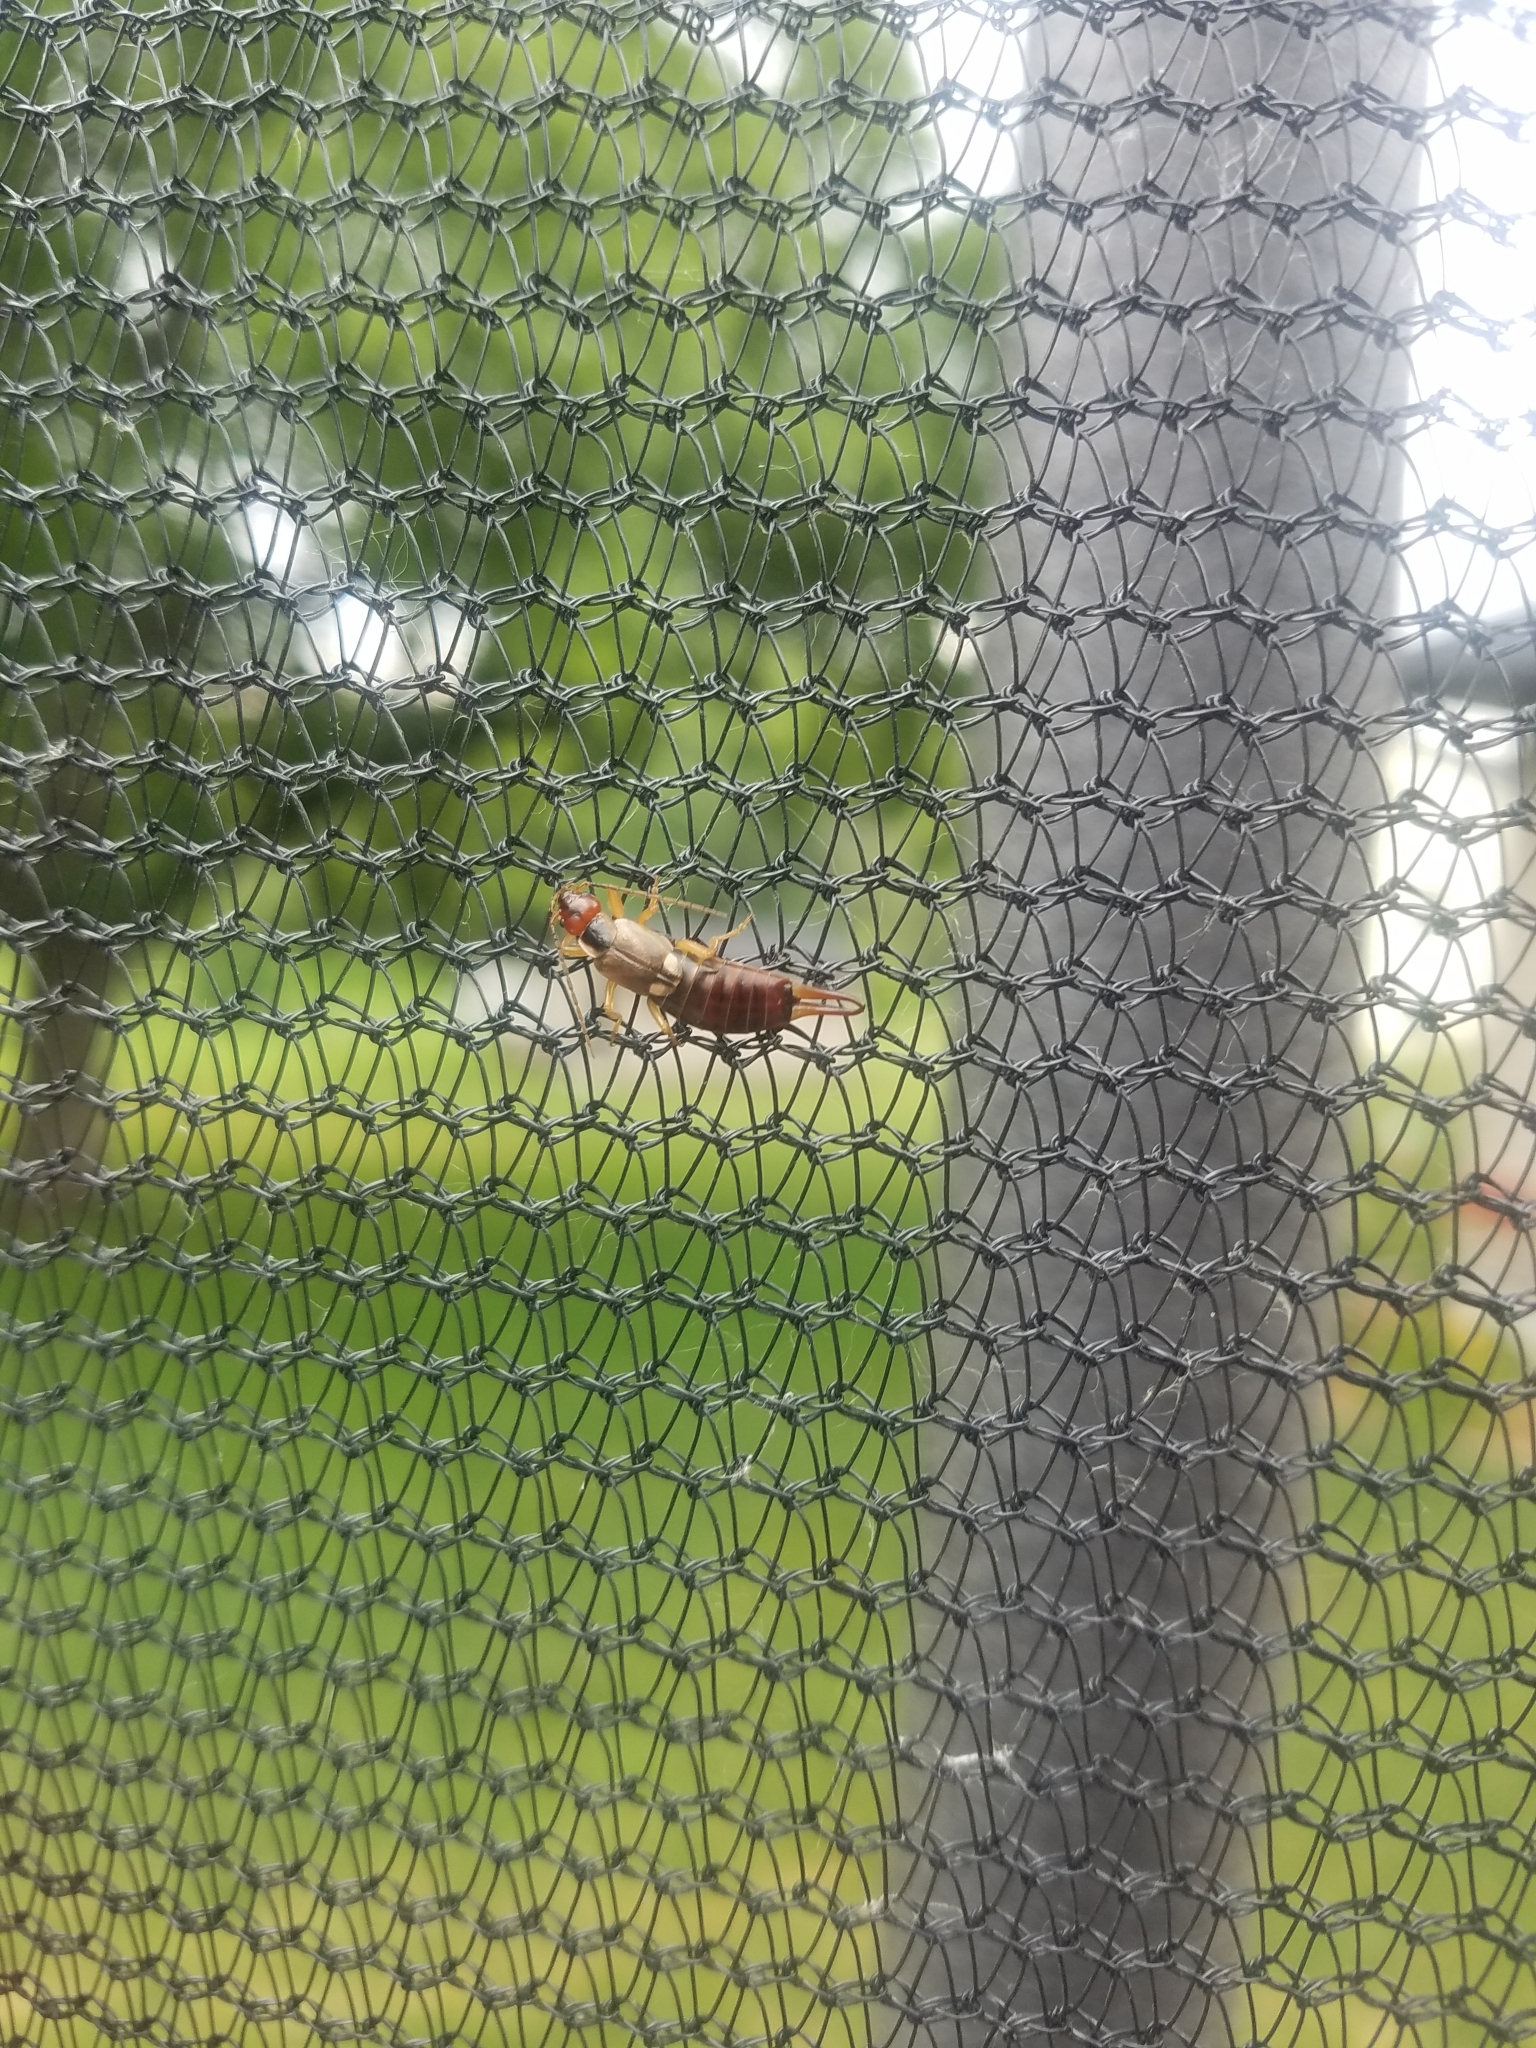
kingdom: Animalia
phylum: Arthropoda
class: Insecta
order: Dermaptera
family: Forficulidae
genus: Forficula
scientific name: Forficula
